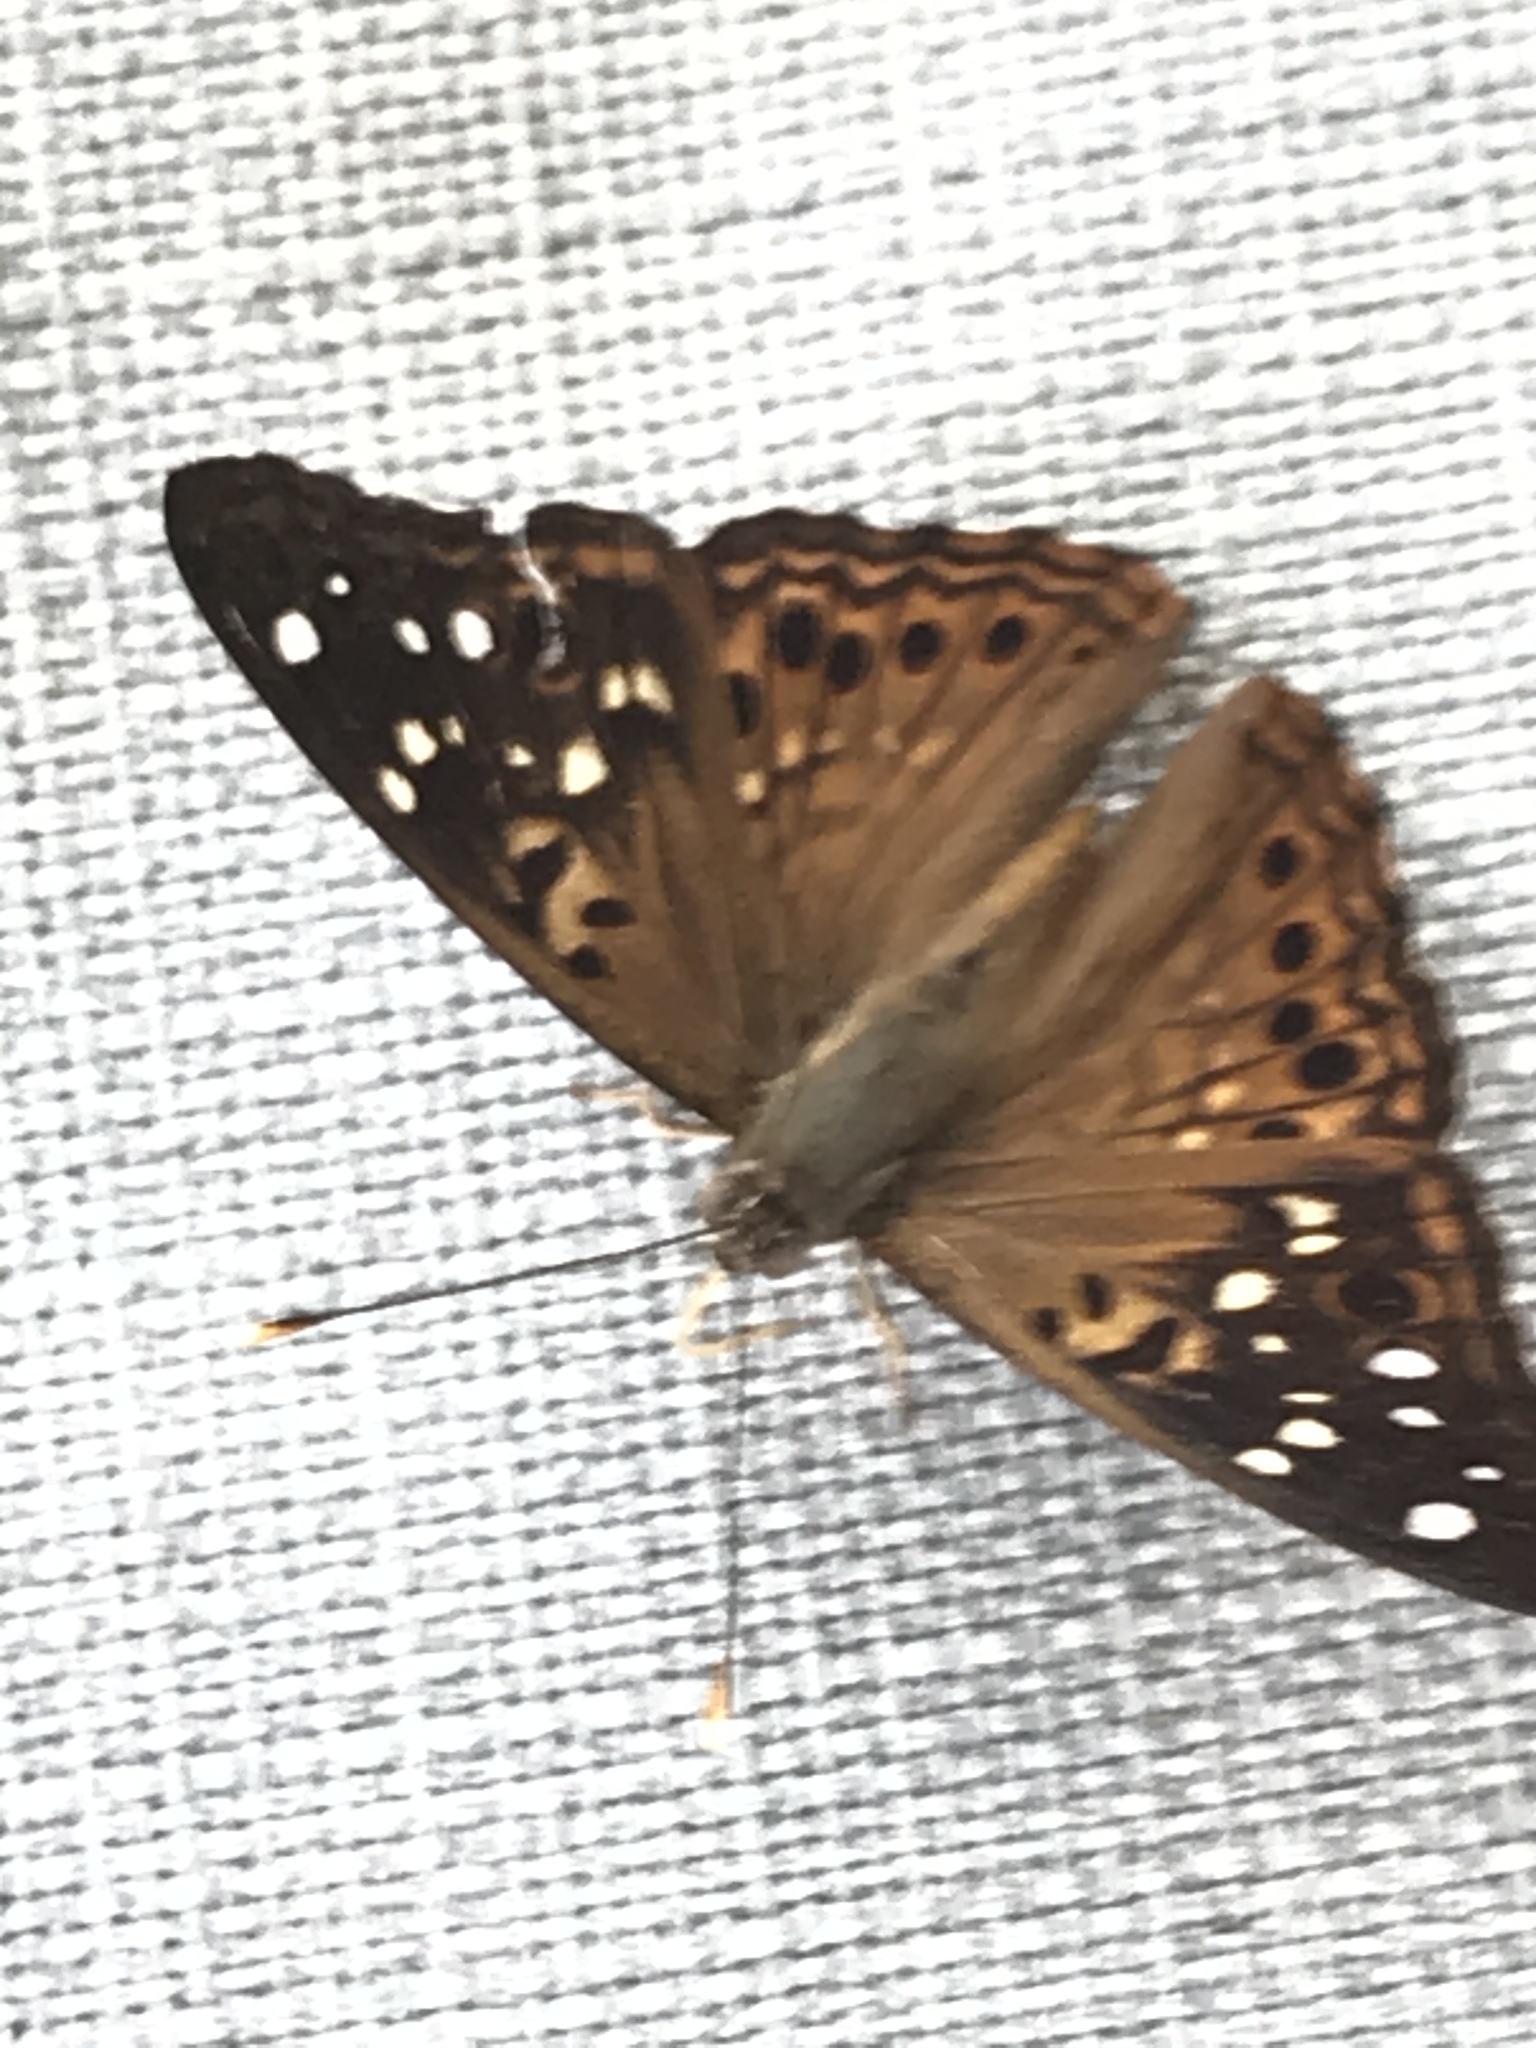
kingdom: Animalia
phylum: Arthropoda
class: Insecta
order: Lepidoptera
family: Nymphalidae
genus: Asterocampa
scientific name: Asterocampa celtis
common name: Hackberry emperor
